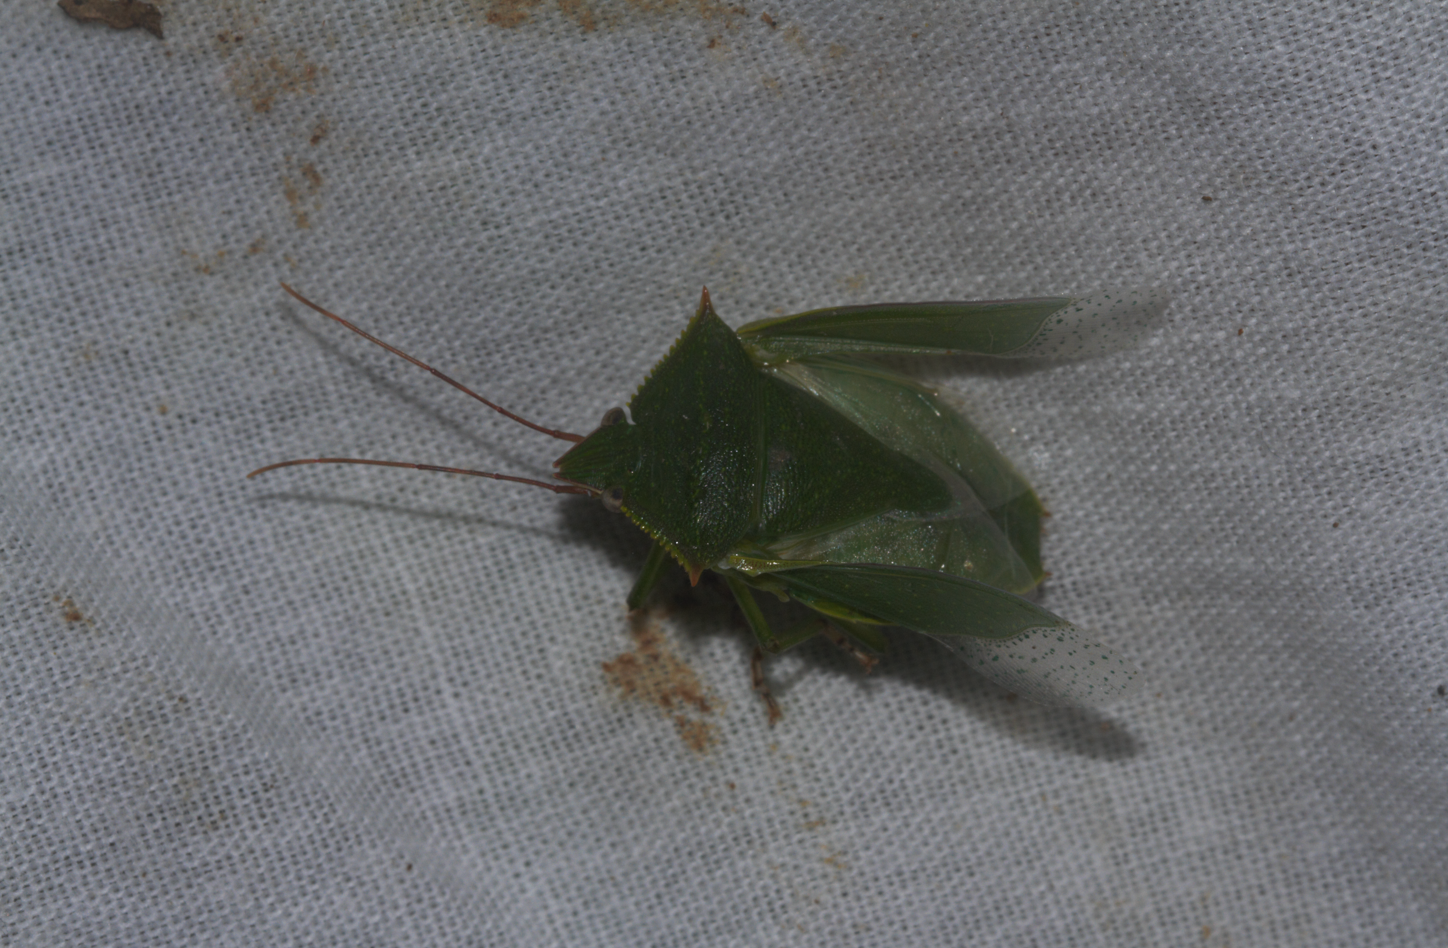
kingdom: Animalia
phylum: Arthropoda
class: Insecta
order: Hemiptera
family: Pentatomidae
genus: Loxa
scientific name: Loxa virescens
